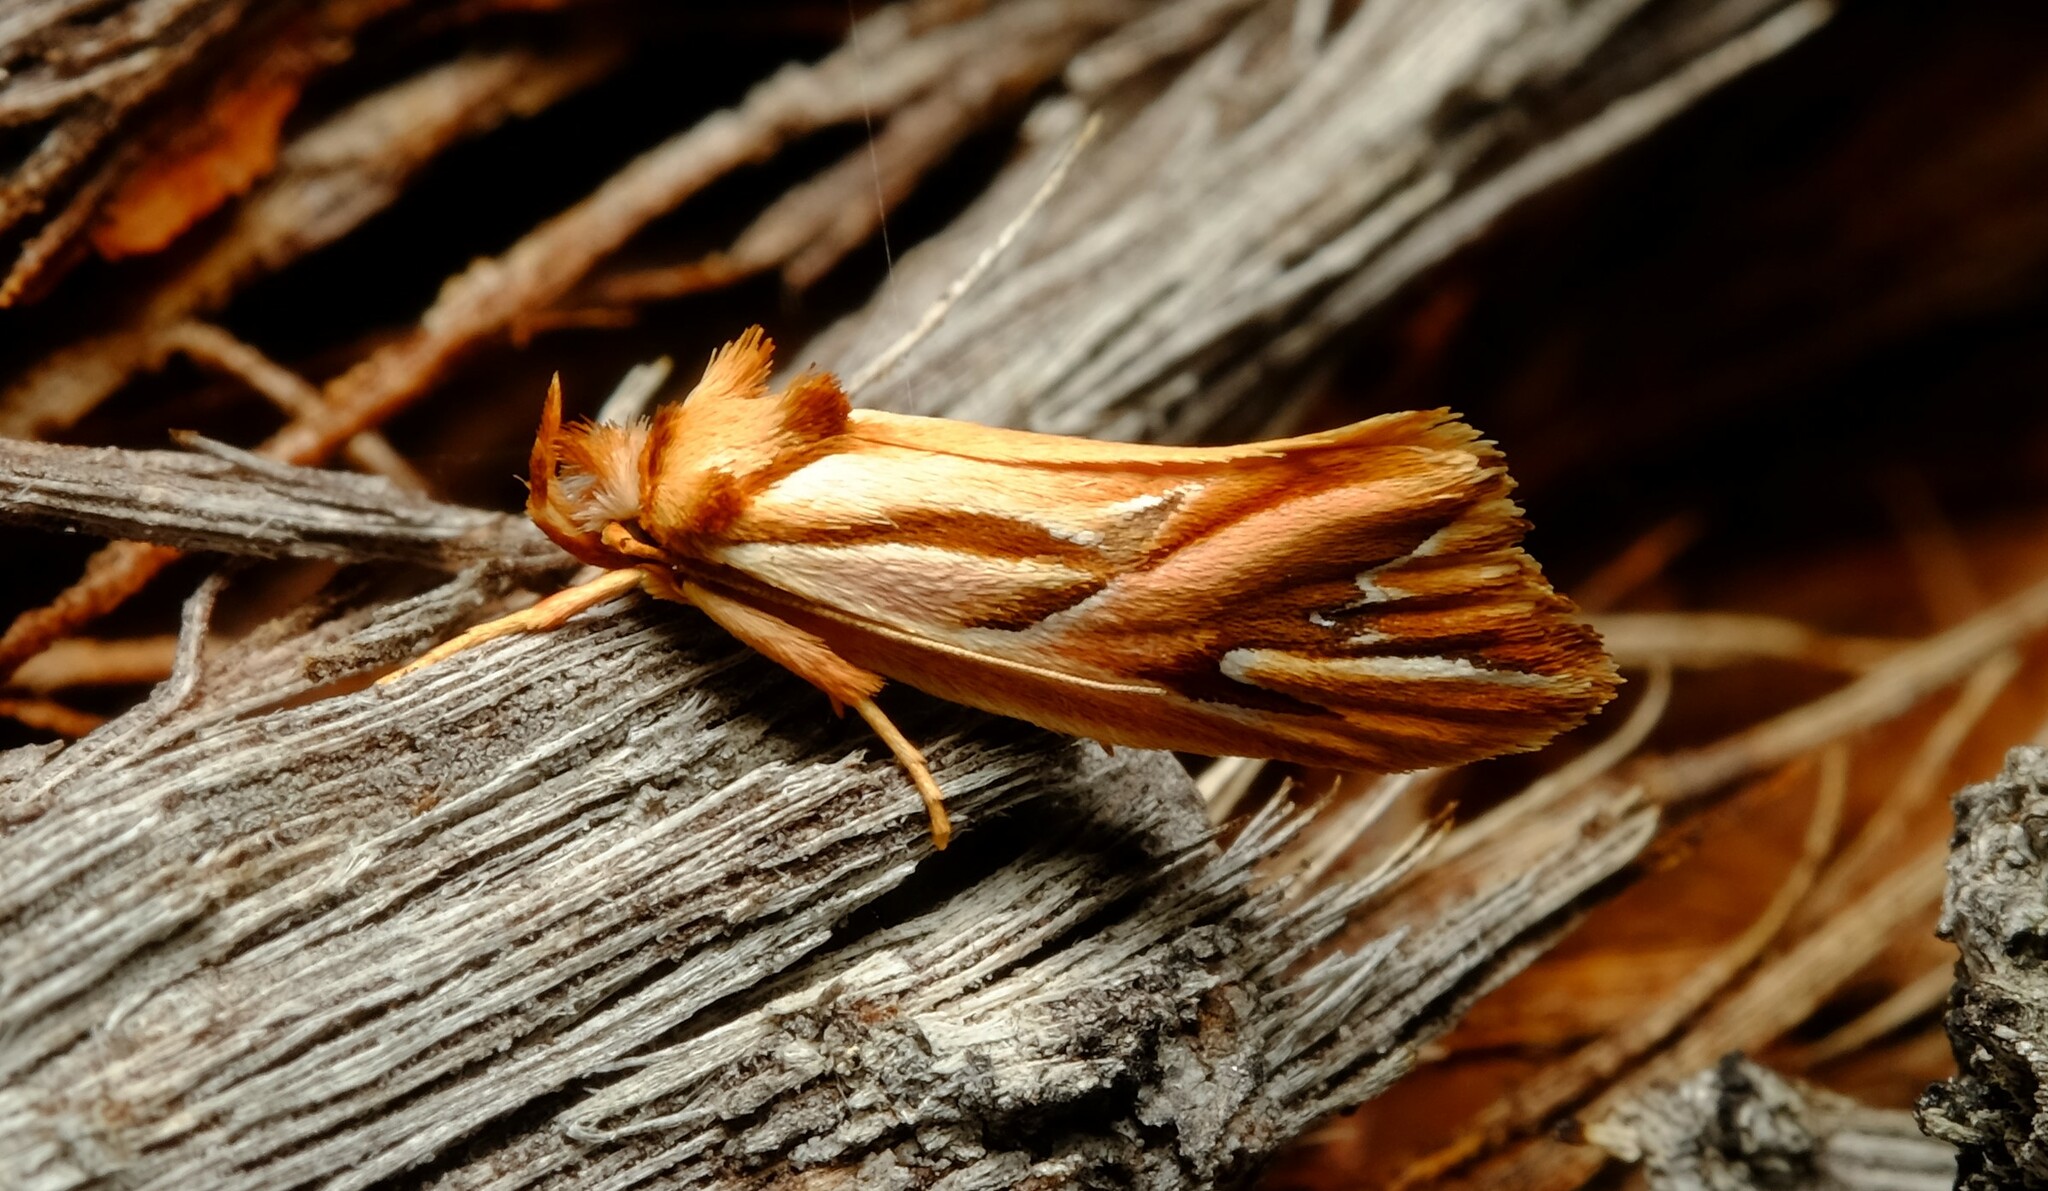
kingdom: Animalia
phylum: Arthropoda
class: Insecta
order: Lepidoptera
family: Depressariidae
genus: Eclecta
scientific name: Eclecta aurorella
